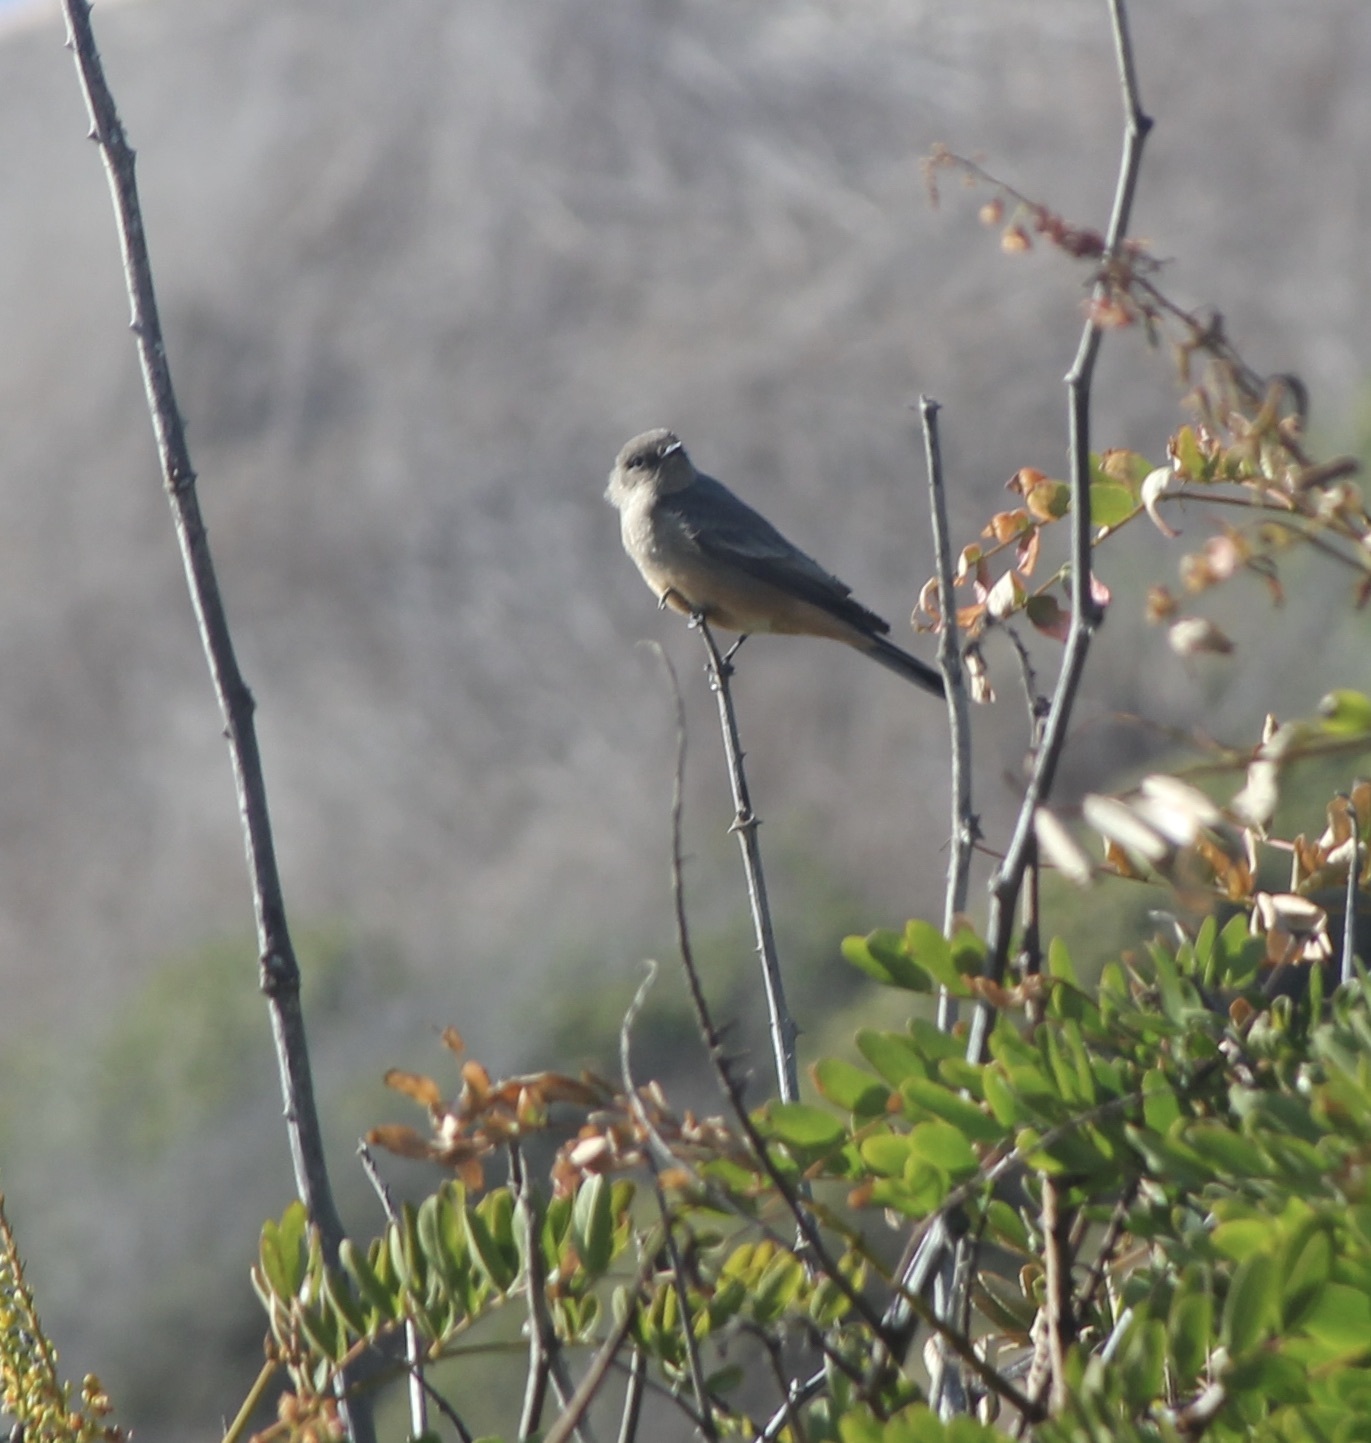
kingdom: Animalia
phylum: Chordata
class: Aves
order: Passeriformes
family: Tyrannidae
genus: Sayornis
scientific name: Sayornis saya
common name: Say's phoebe
